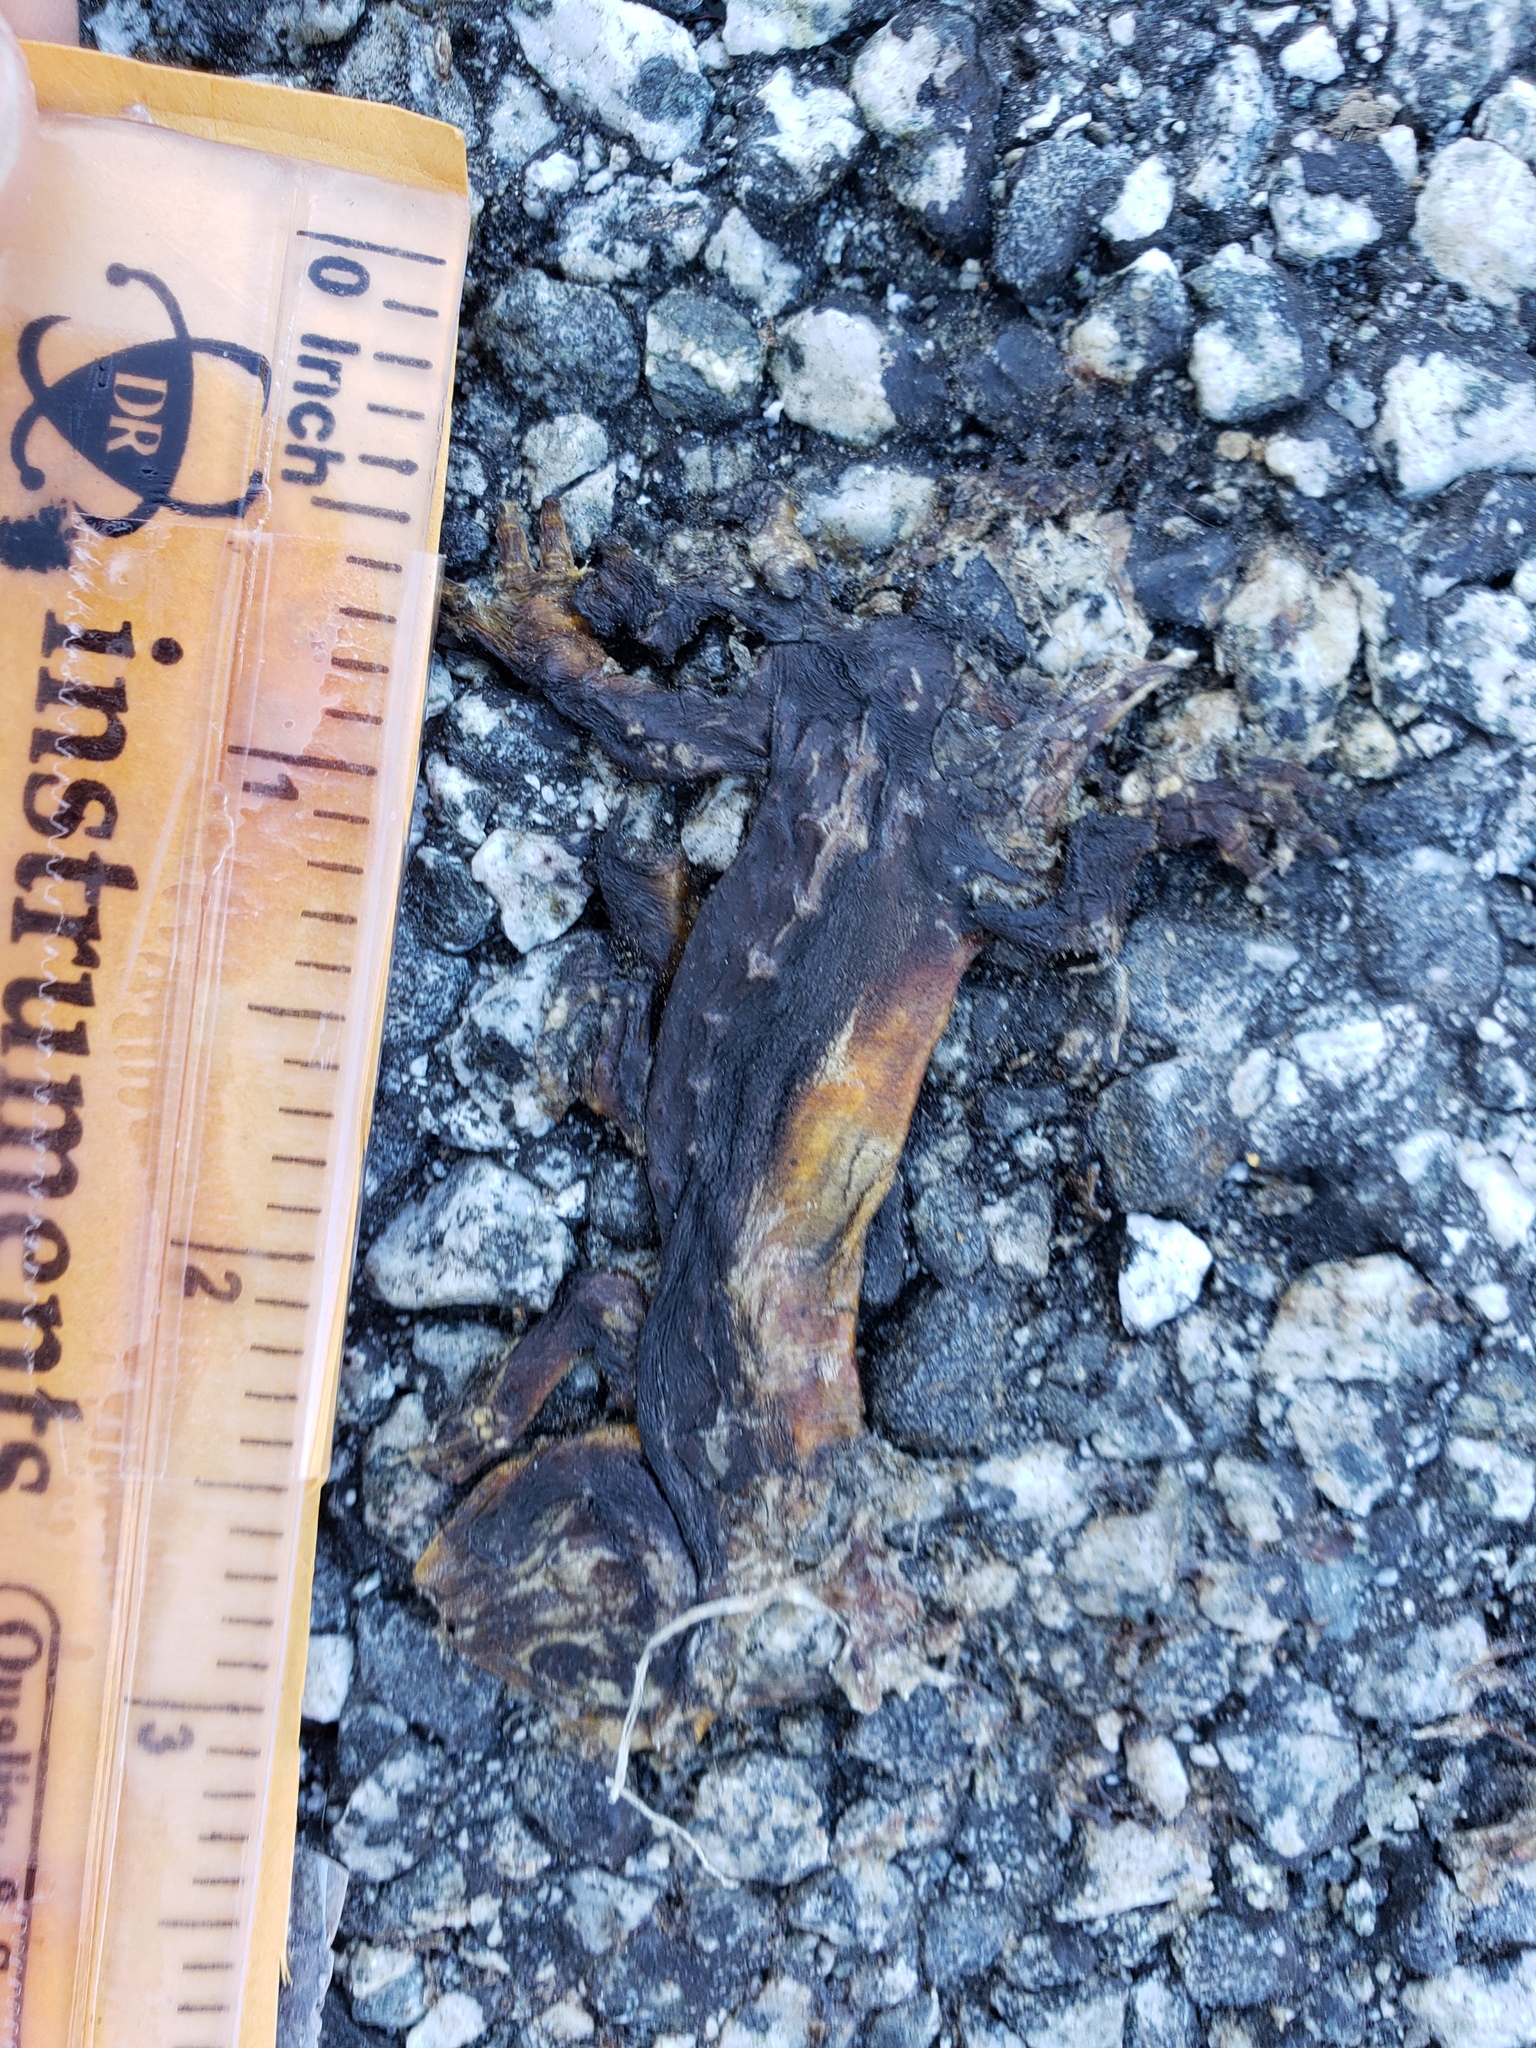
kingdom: Animalia
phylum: Chordata
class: Amphibia
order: Caudata
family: Salamandridae
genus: Taricha
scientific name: Taricha
